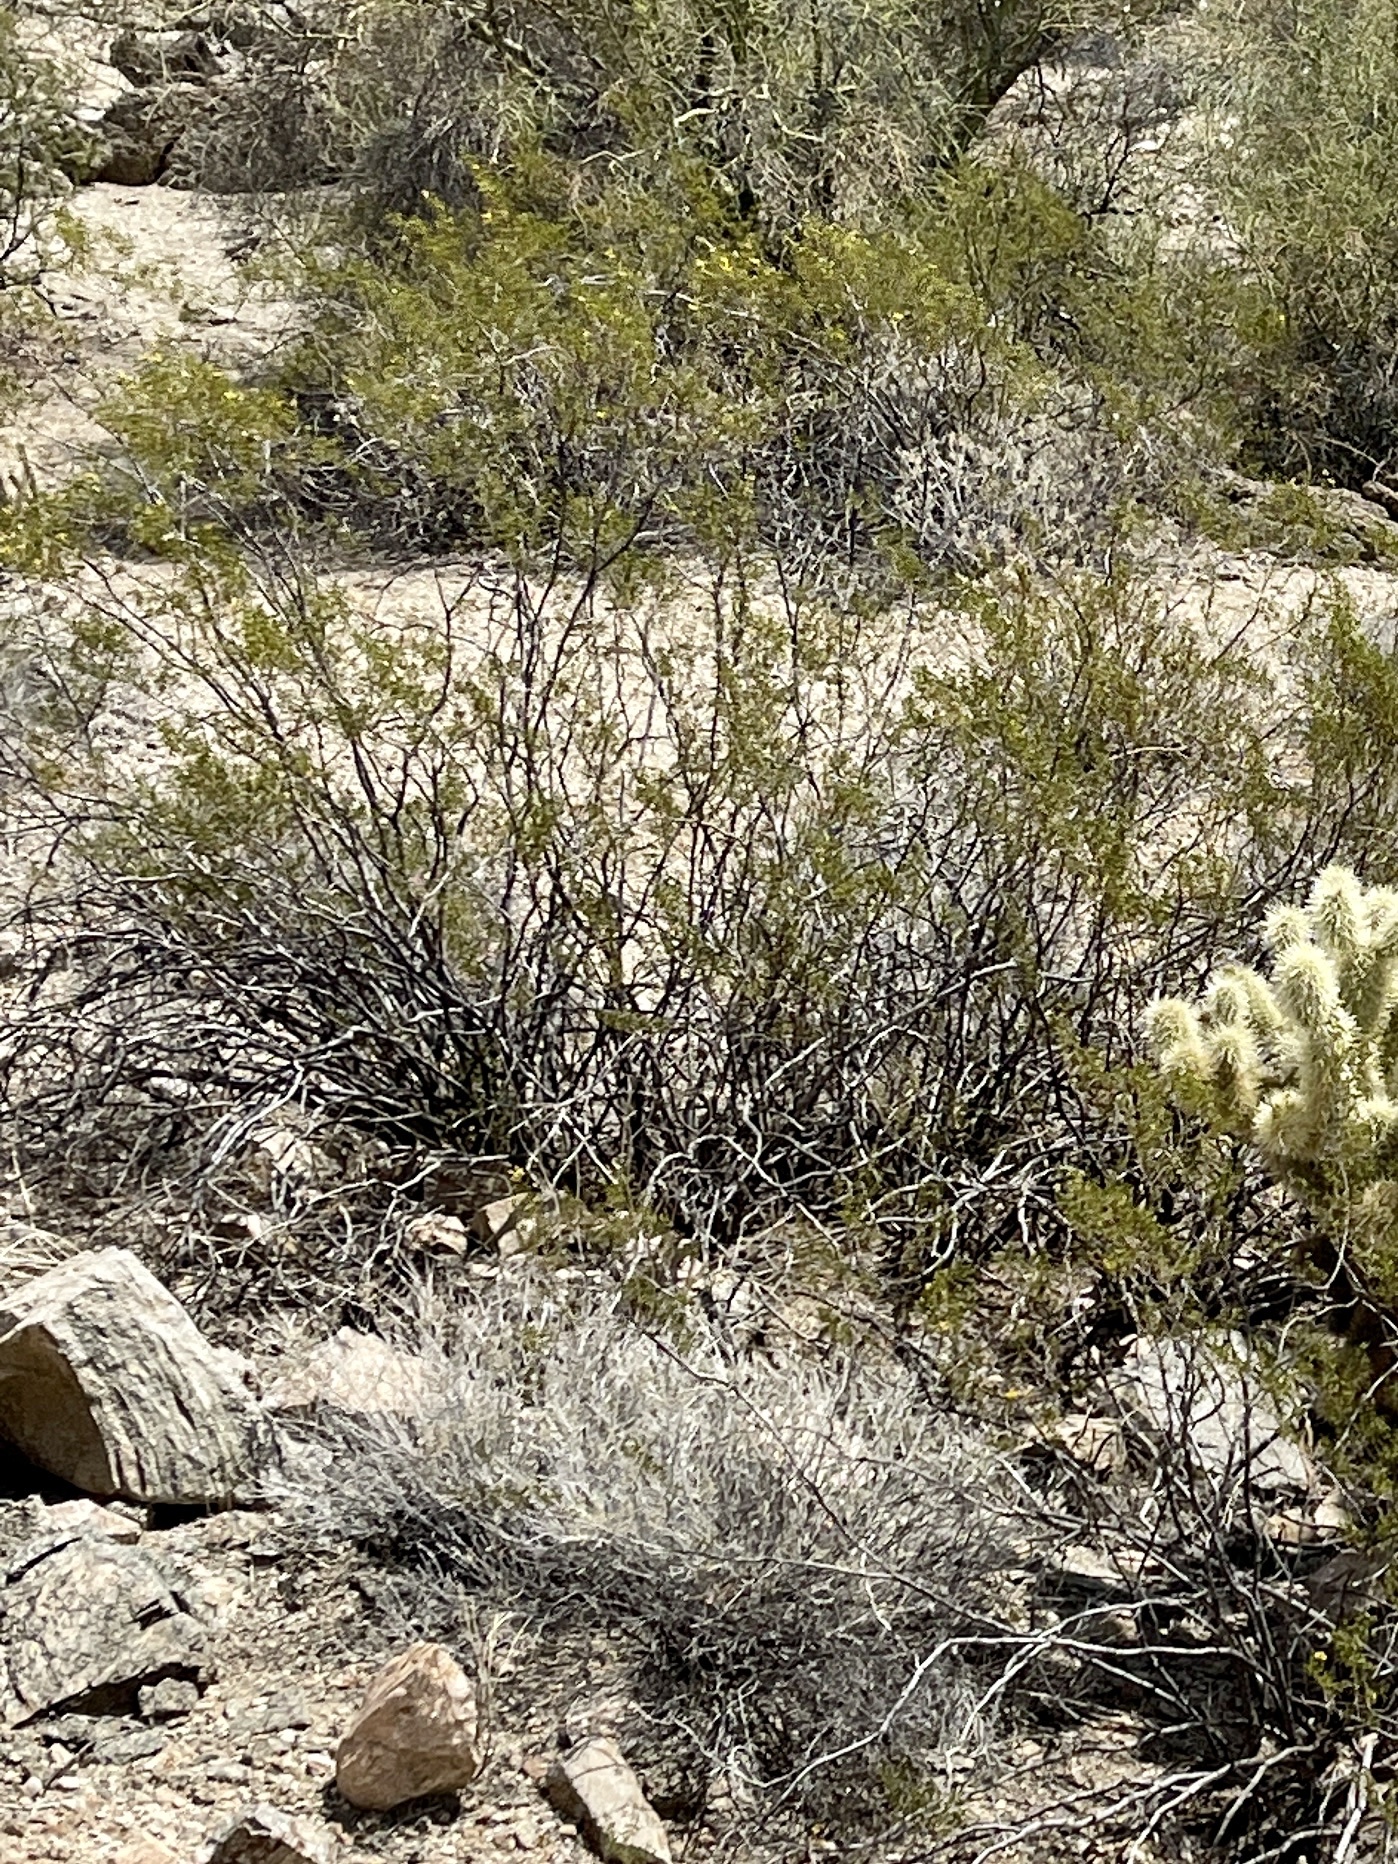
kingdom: Plantae
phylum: Tracheophyta
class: Magnoliopsida
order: Zygophyllales
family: Zygophyllaceae
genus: Larrea
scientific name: Larrea tridentata
